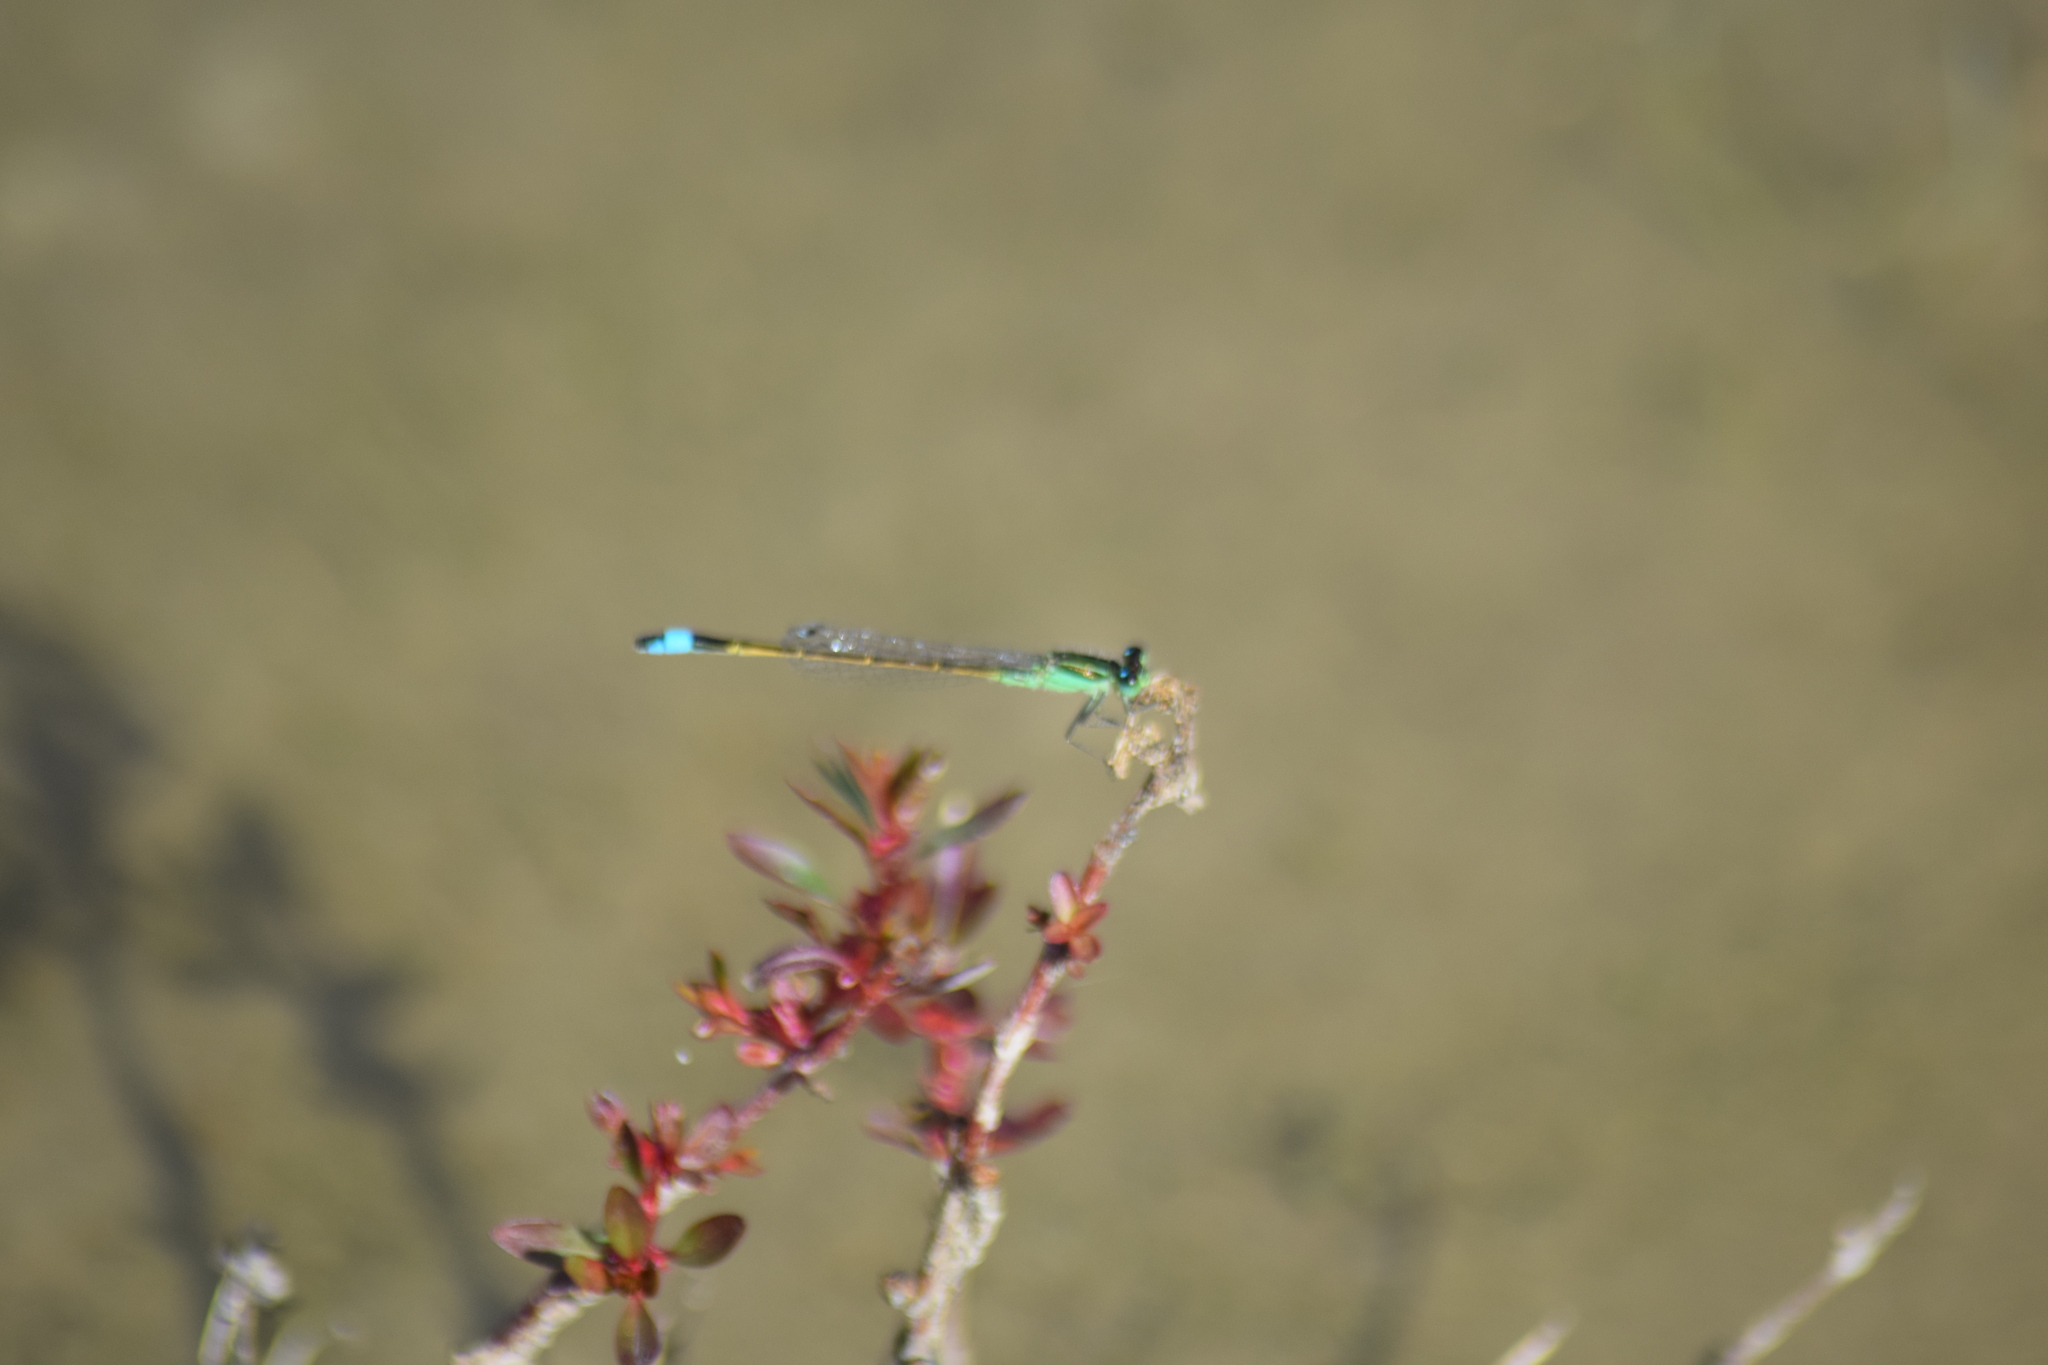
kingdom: Animalia
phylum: Arthropoda
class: Insecta
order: Odonata
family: Coenagrionidae
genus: Ischnura
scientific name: Ischnura ramburii
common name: Rambur's forktail
